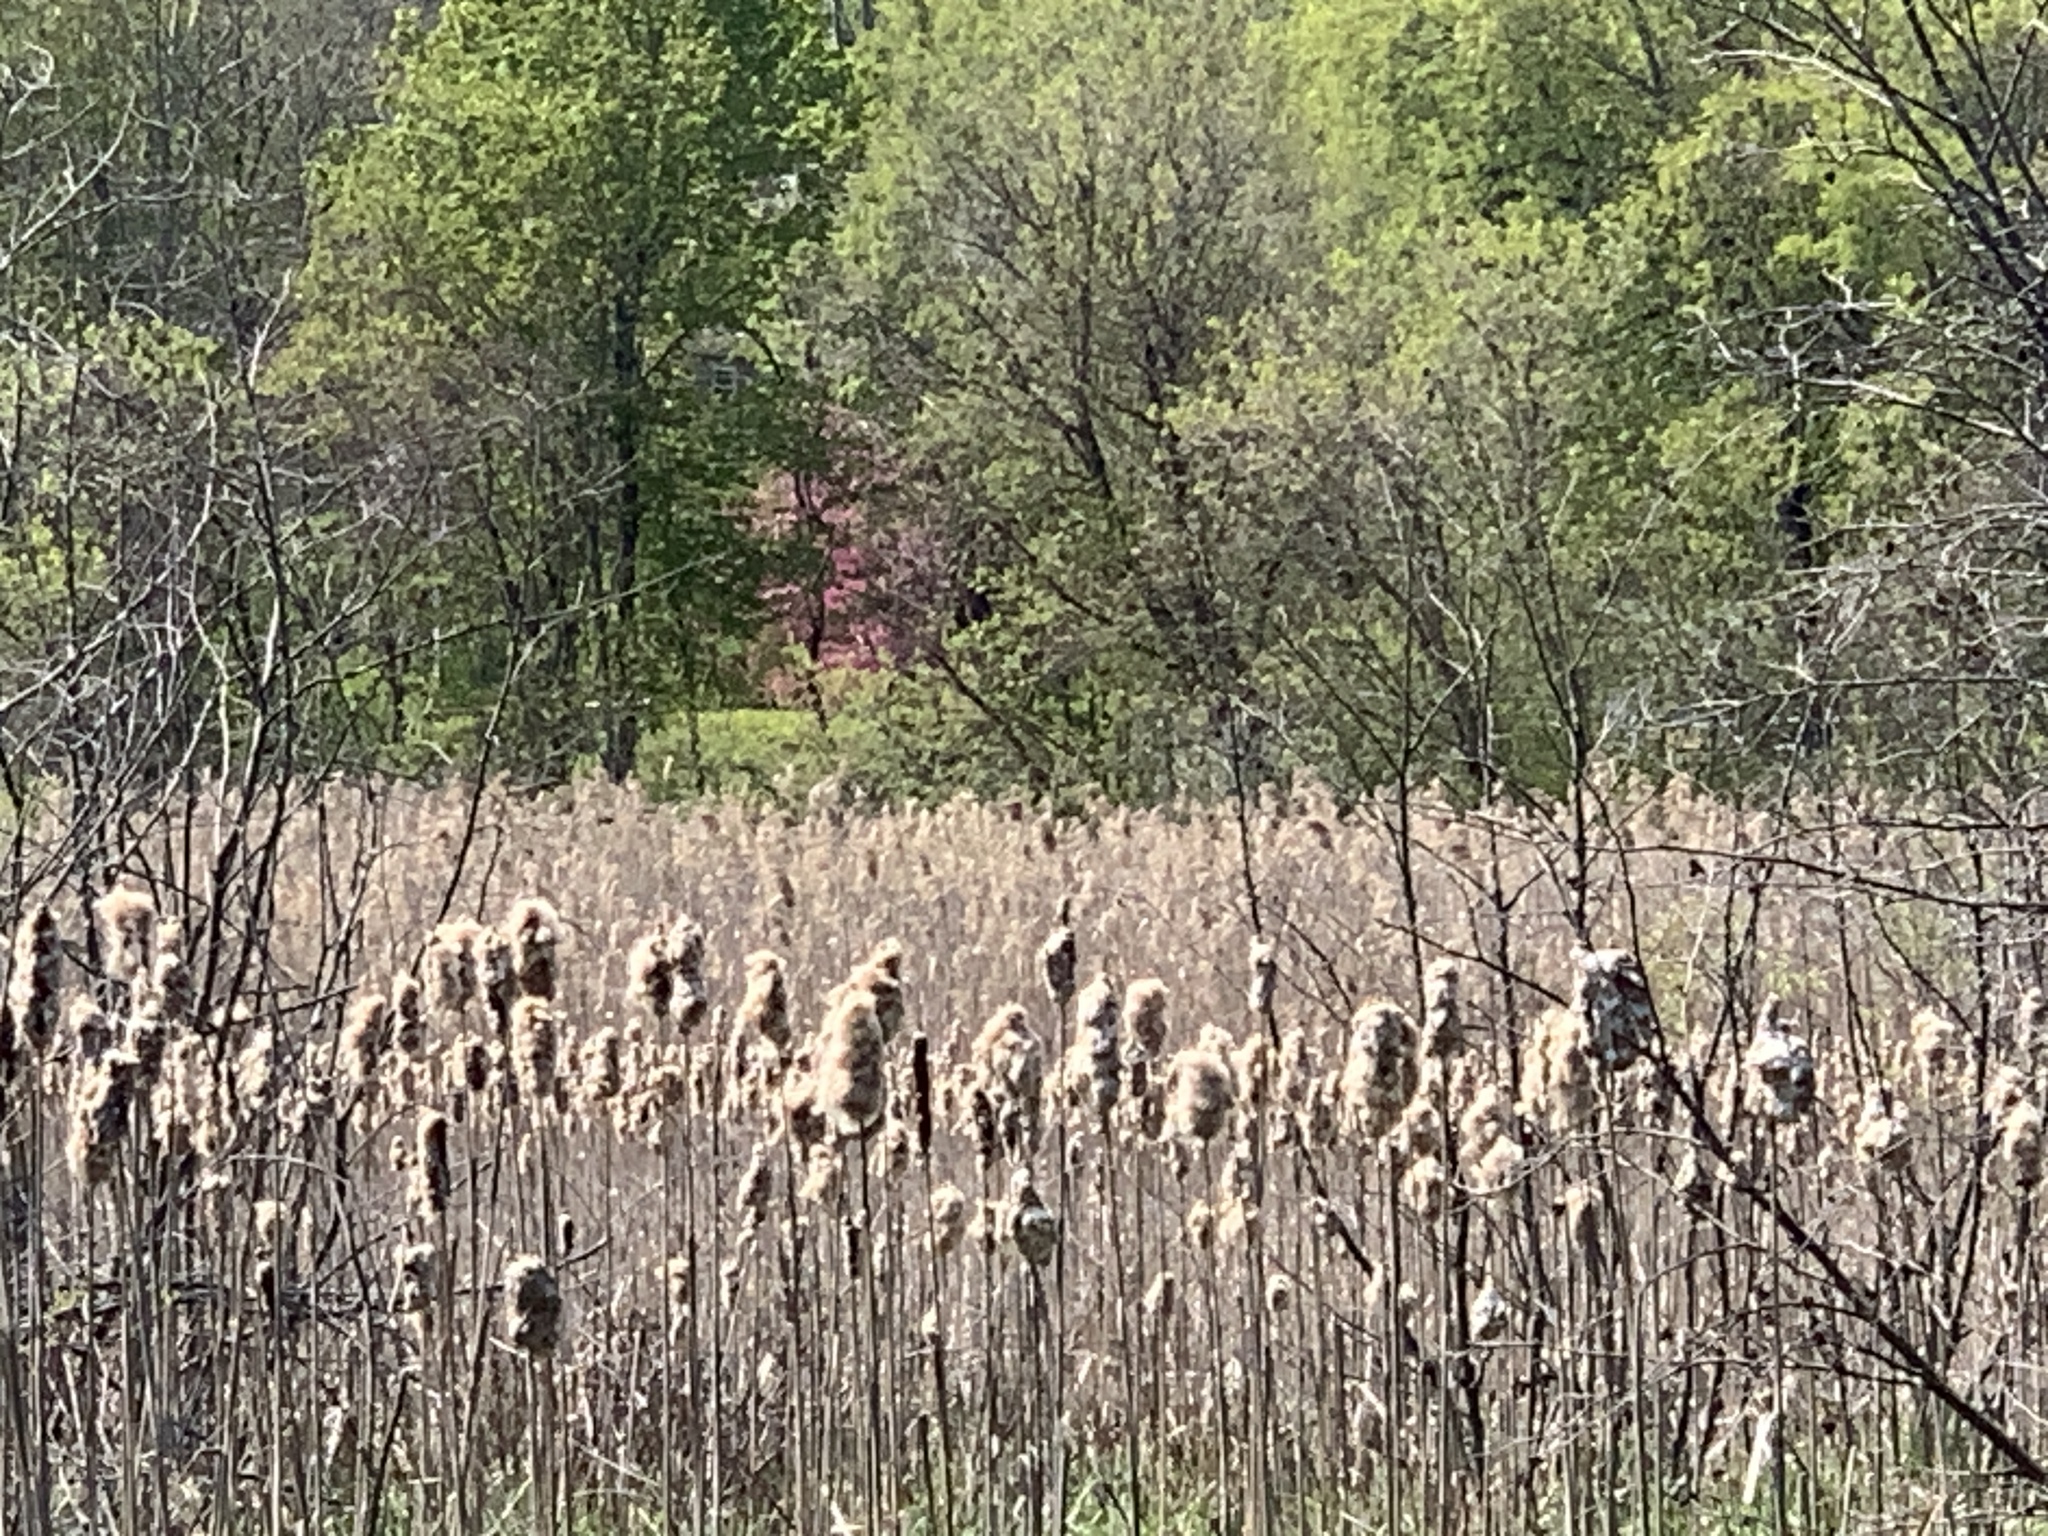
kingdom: Plantae
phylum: Tracheophyta
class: Liliopsida
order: Poales
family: Poaceae
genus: Phragmites
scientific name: Phragmites australis
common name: Common reed
